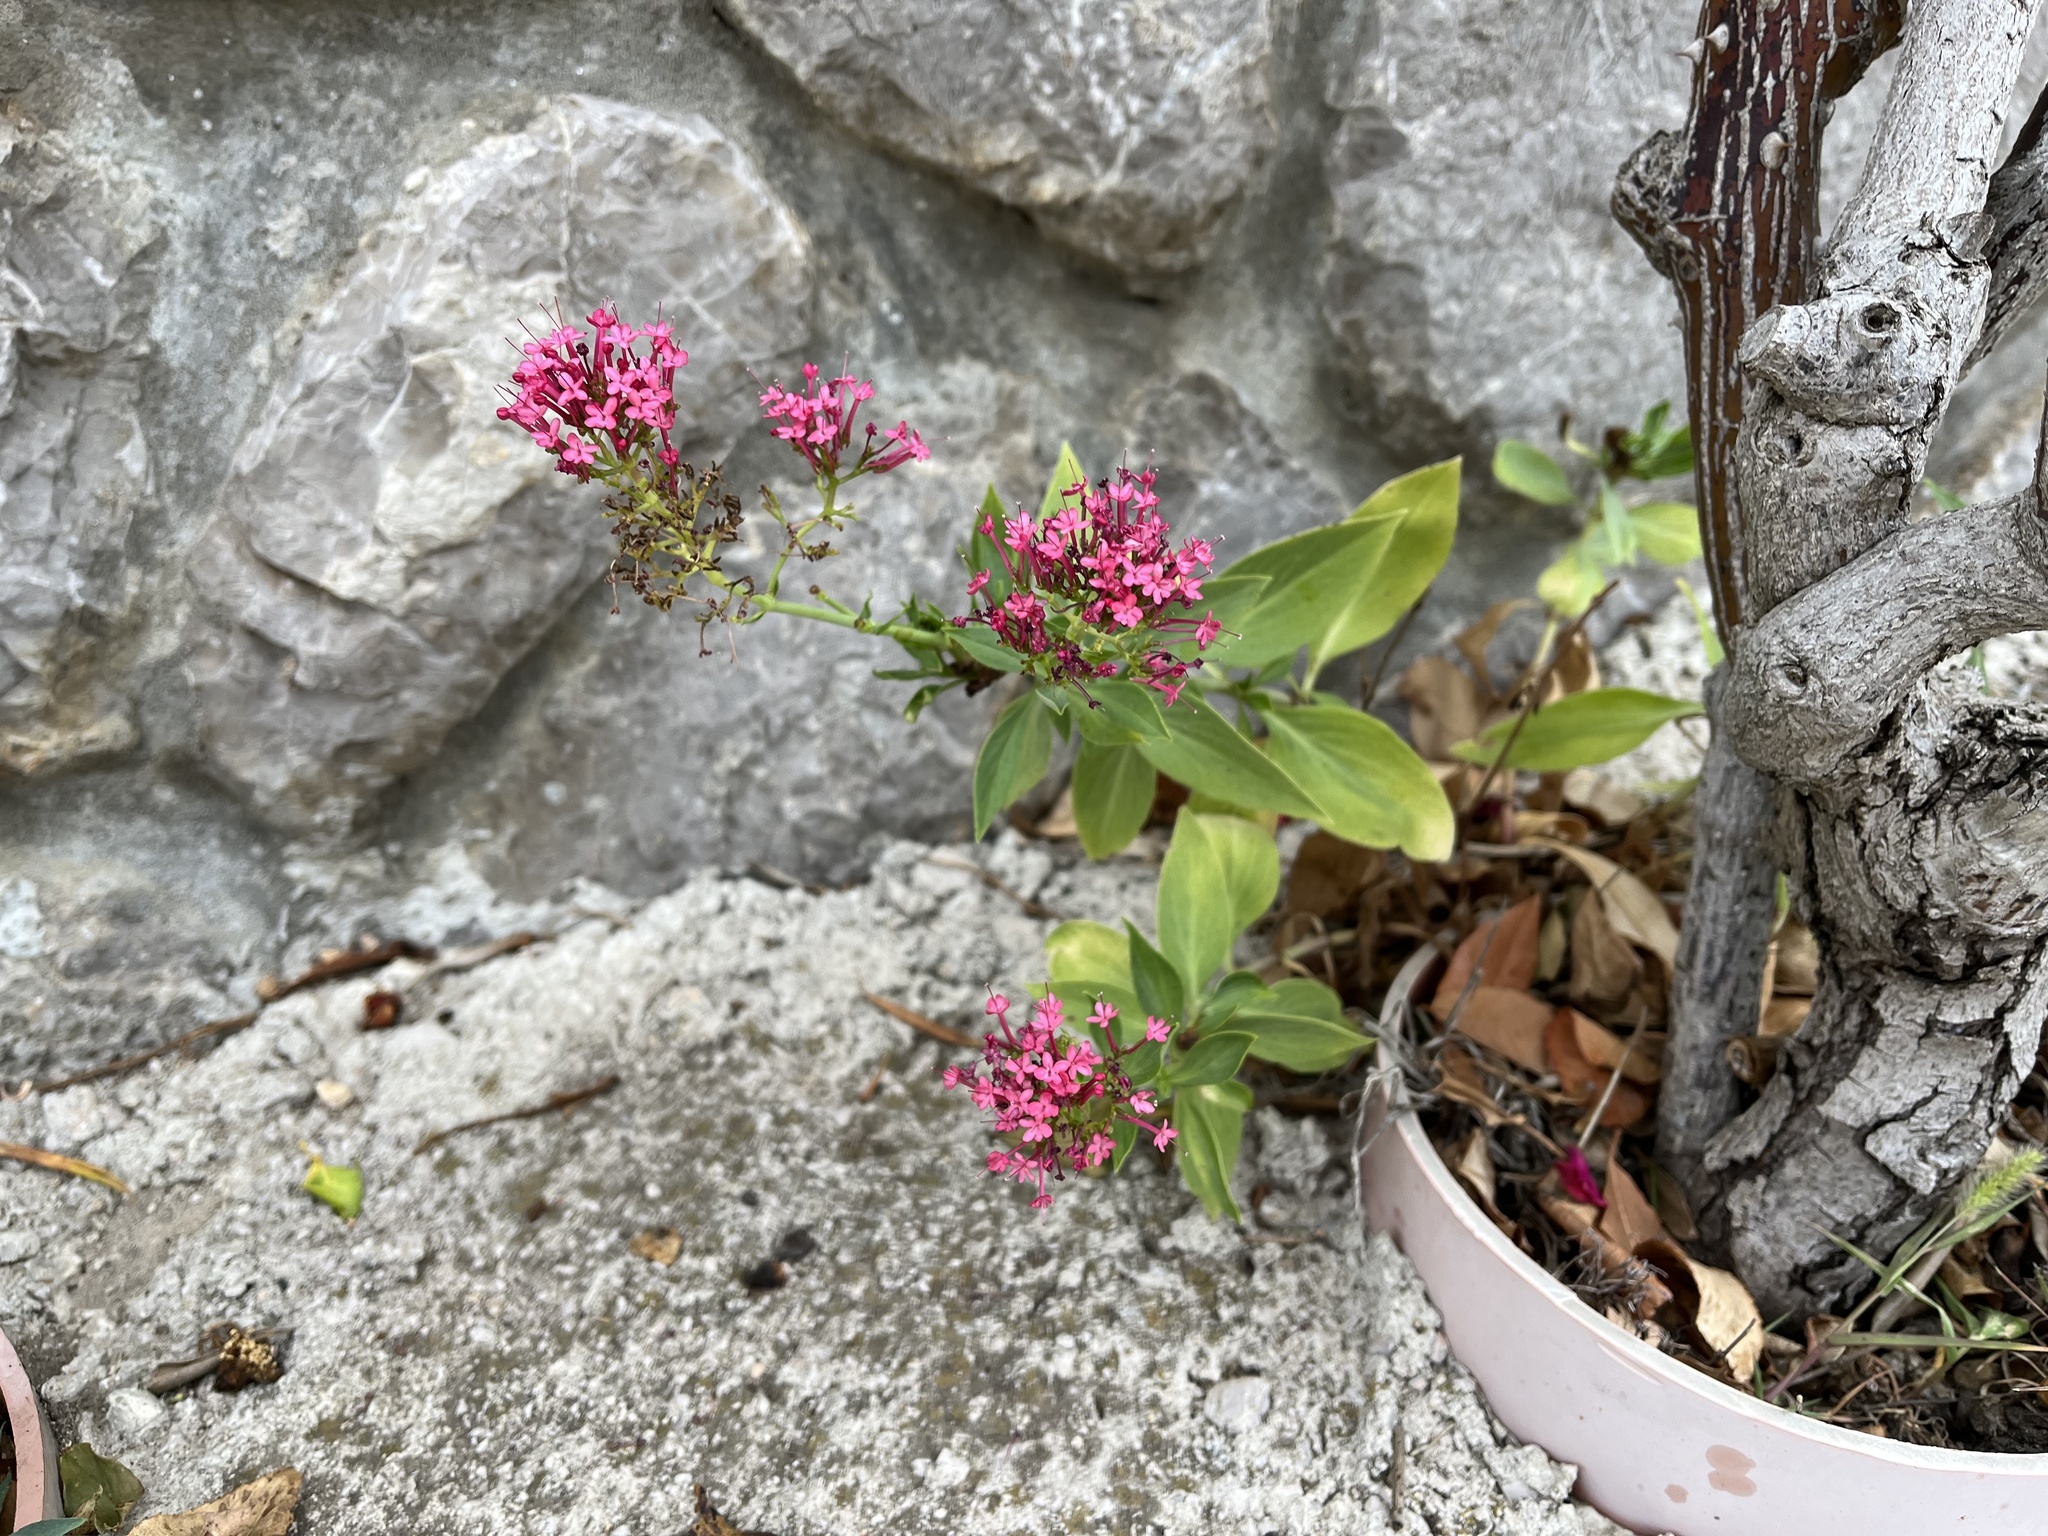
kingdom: Plantae
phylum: Tracheophyta
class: Magnoliopsida
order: Dipsacales
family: Caprifoliaceae
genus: Centranthus
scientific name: Centranthus ruber
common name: Red valerian
